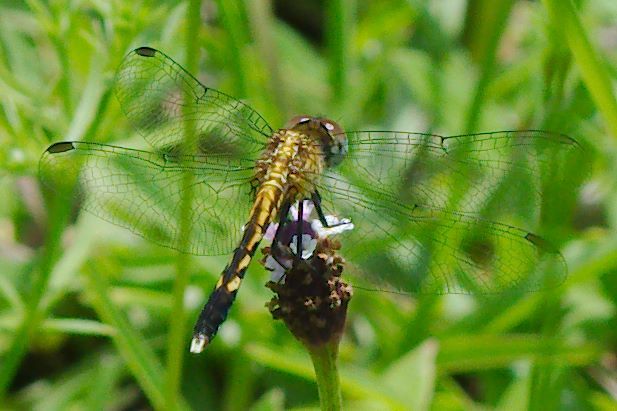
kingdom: Animalia
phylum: Arthropoda
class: Insecta
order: Odonata
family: Libellulidae
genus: Erythrodiplax
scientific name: Erythrodiplax minuscula
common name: Little blue dragonlet
